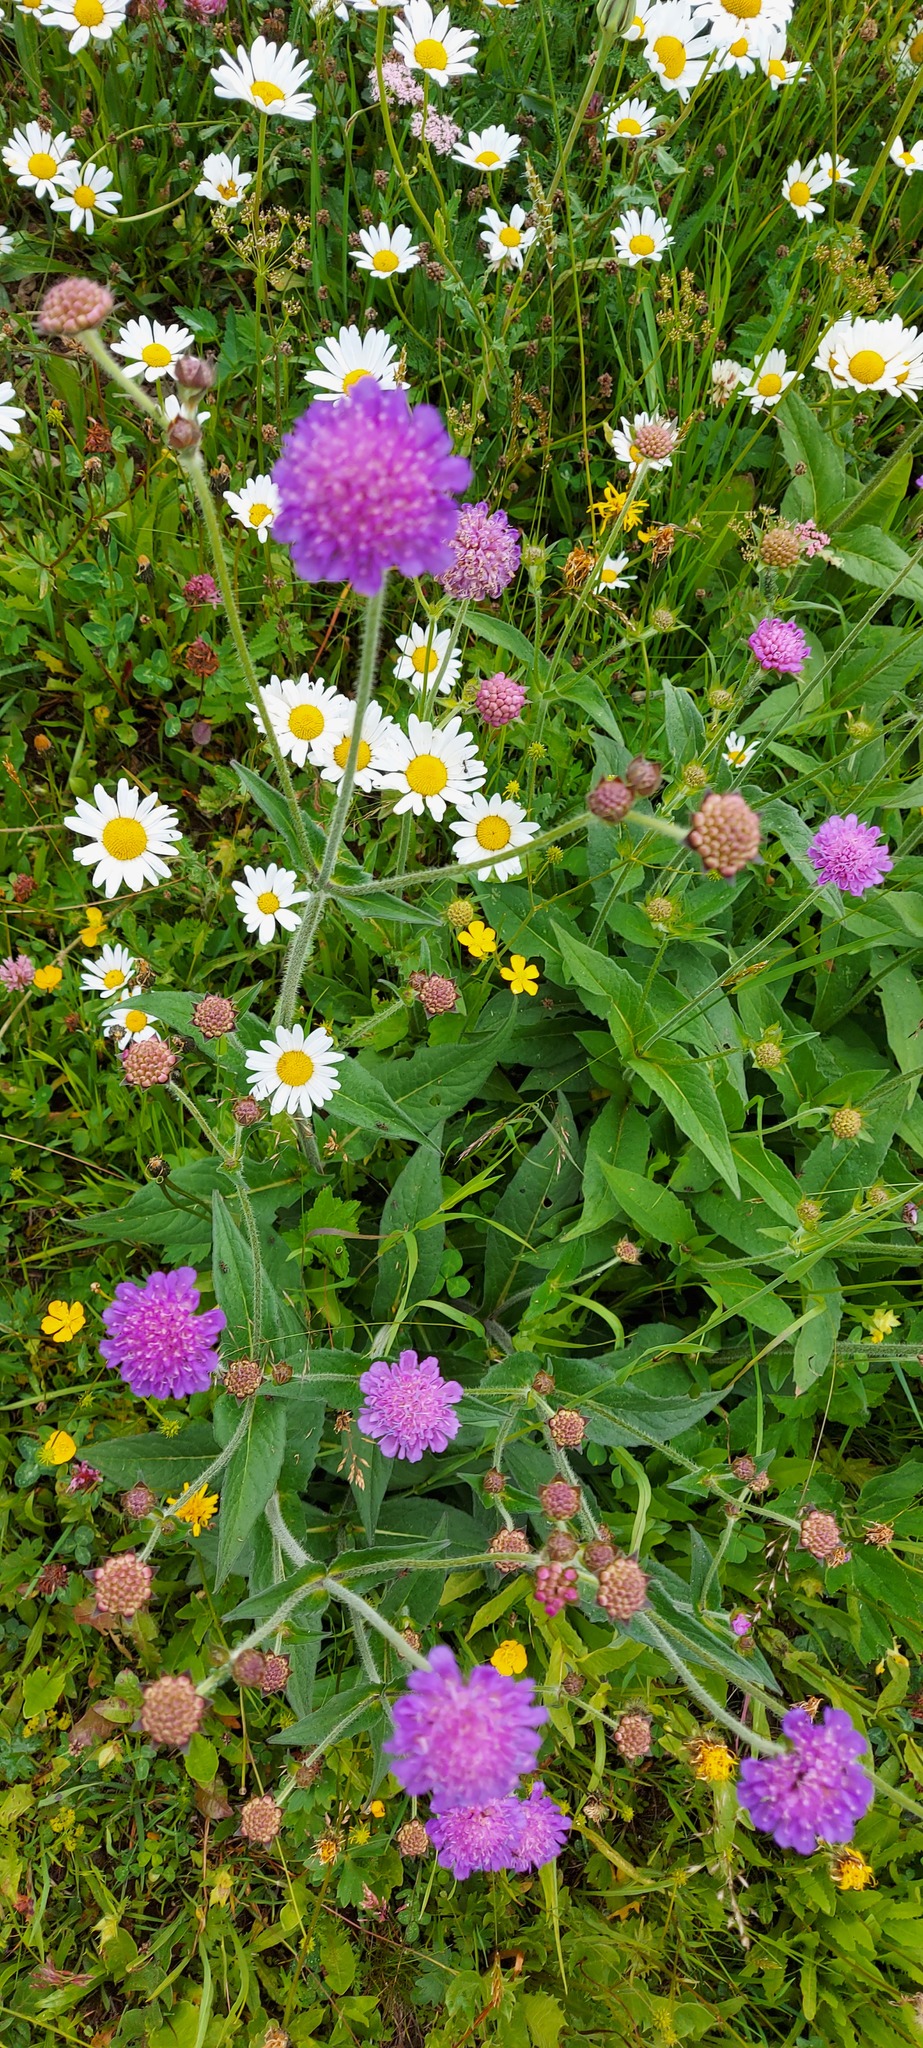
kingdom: Plantae
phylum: Tracheophyta
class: Magnoliopsida
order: Dipsacales
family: Caprifoliaceae
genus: Knautia
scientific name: Knautia dipsacifolia
